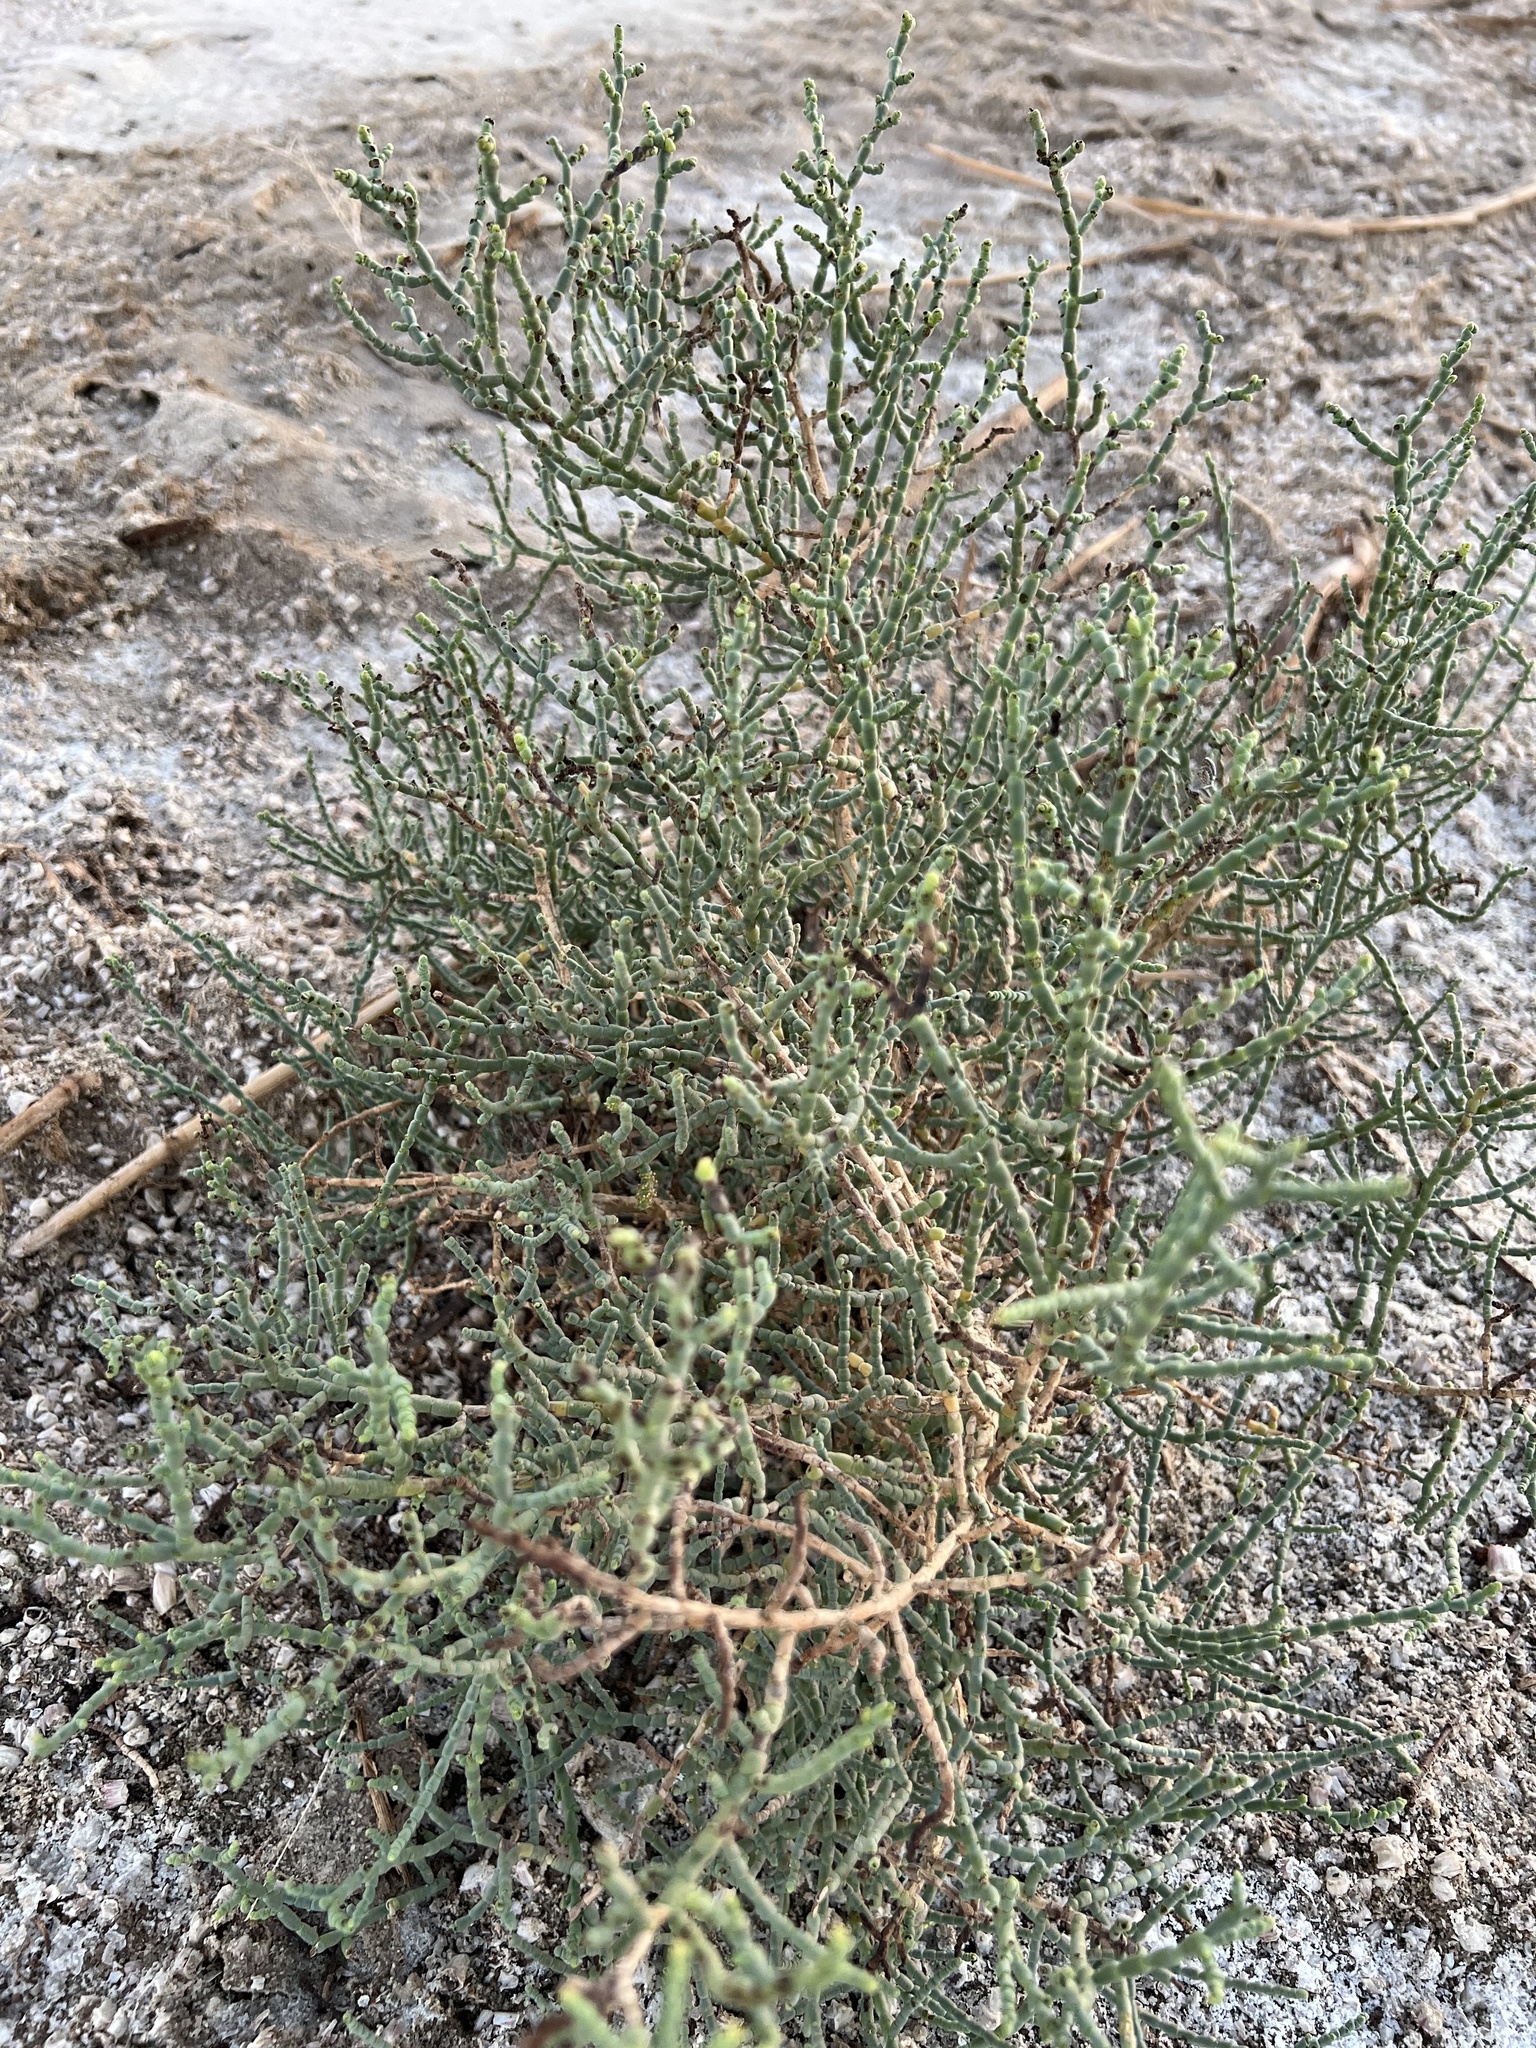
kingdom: Plantae
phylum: Tracheophyta
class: Magnoliopsida
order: Caryophyllales
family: Amaranthaceae
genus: Allenrolfea
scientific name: Allenrolfea occidentalis
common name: Iodine-bush
